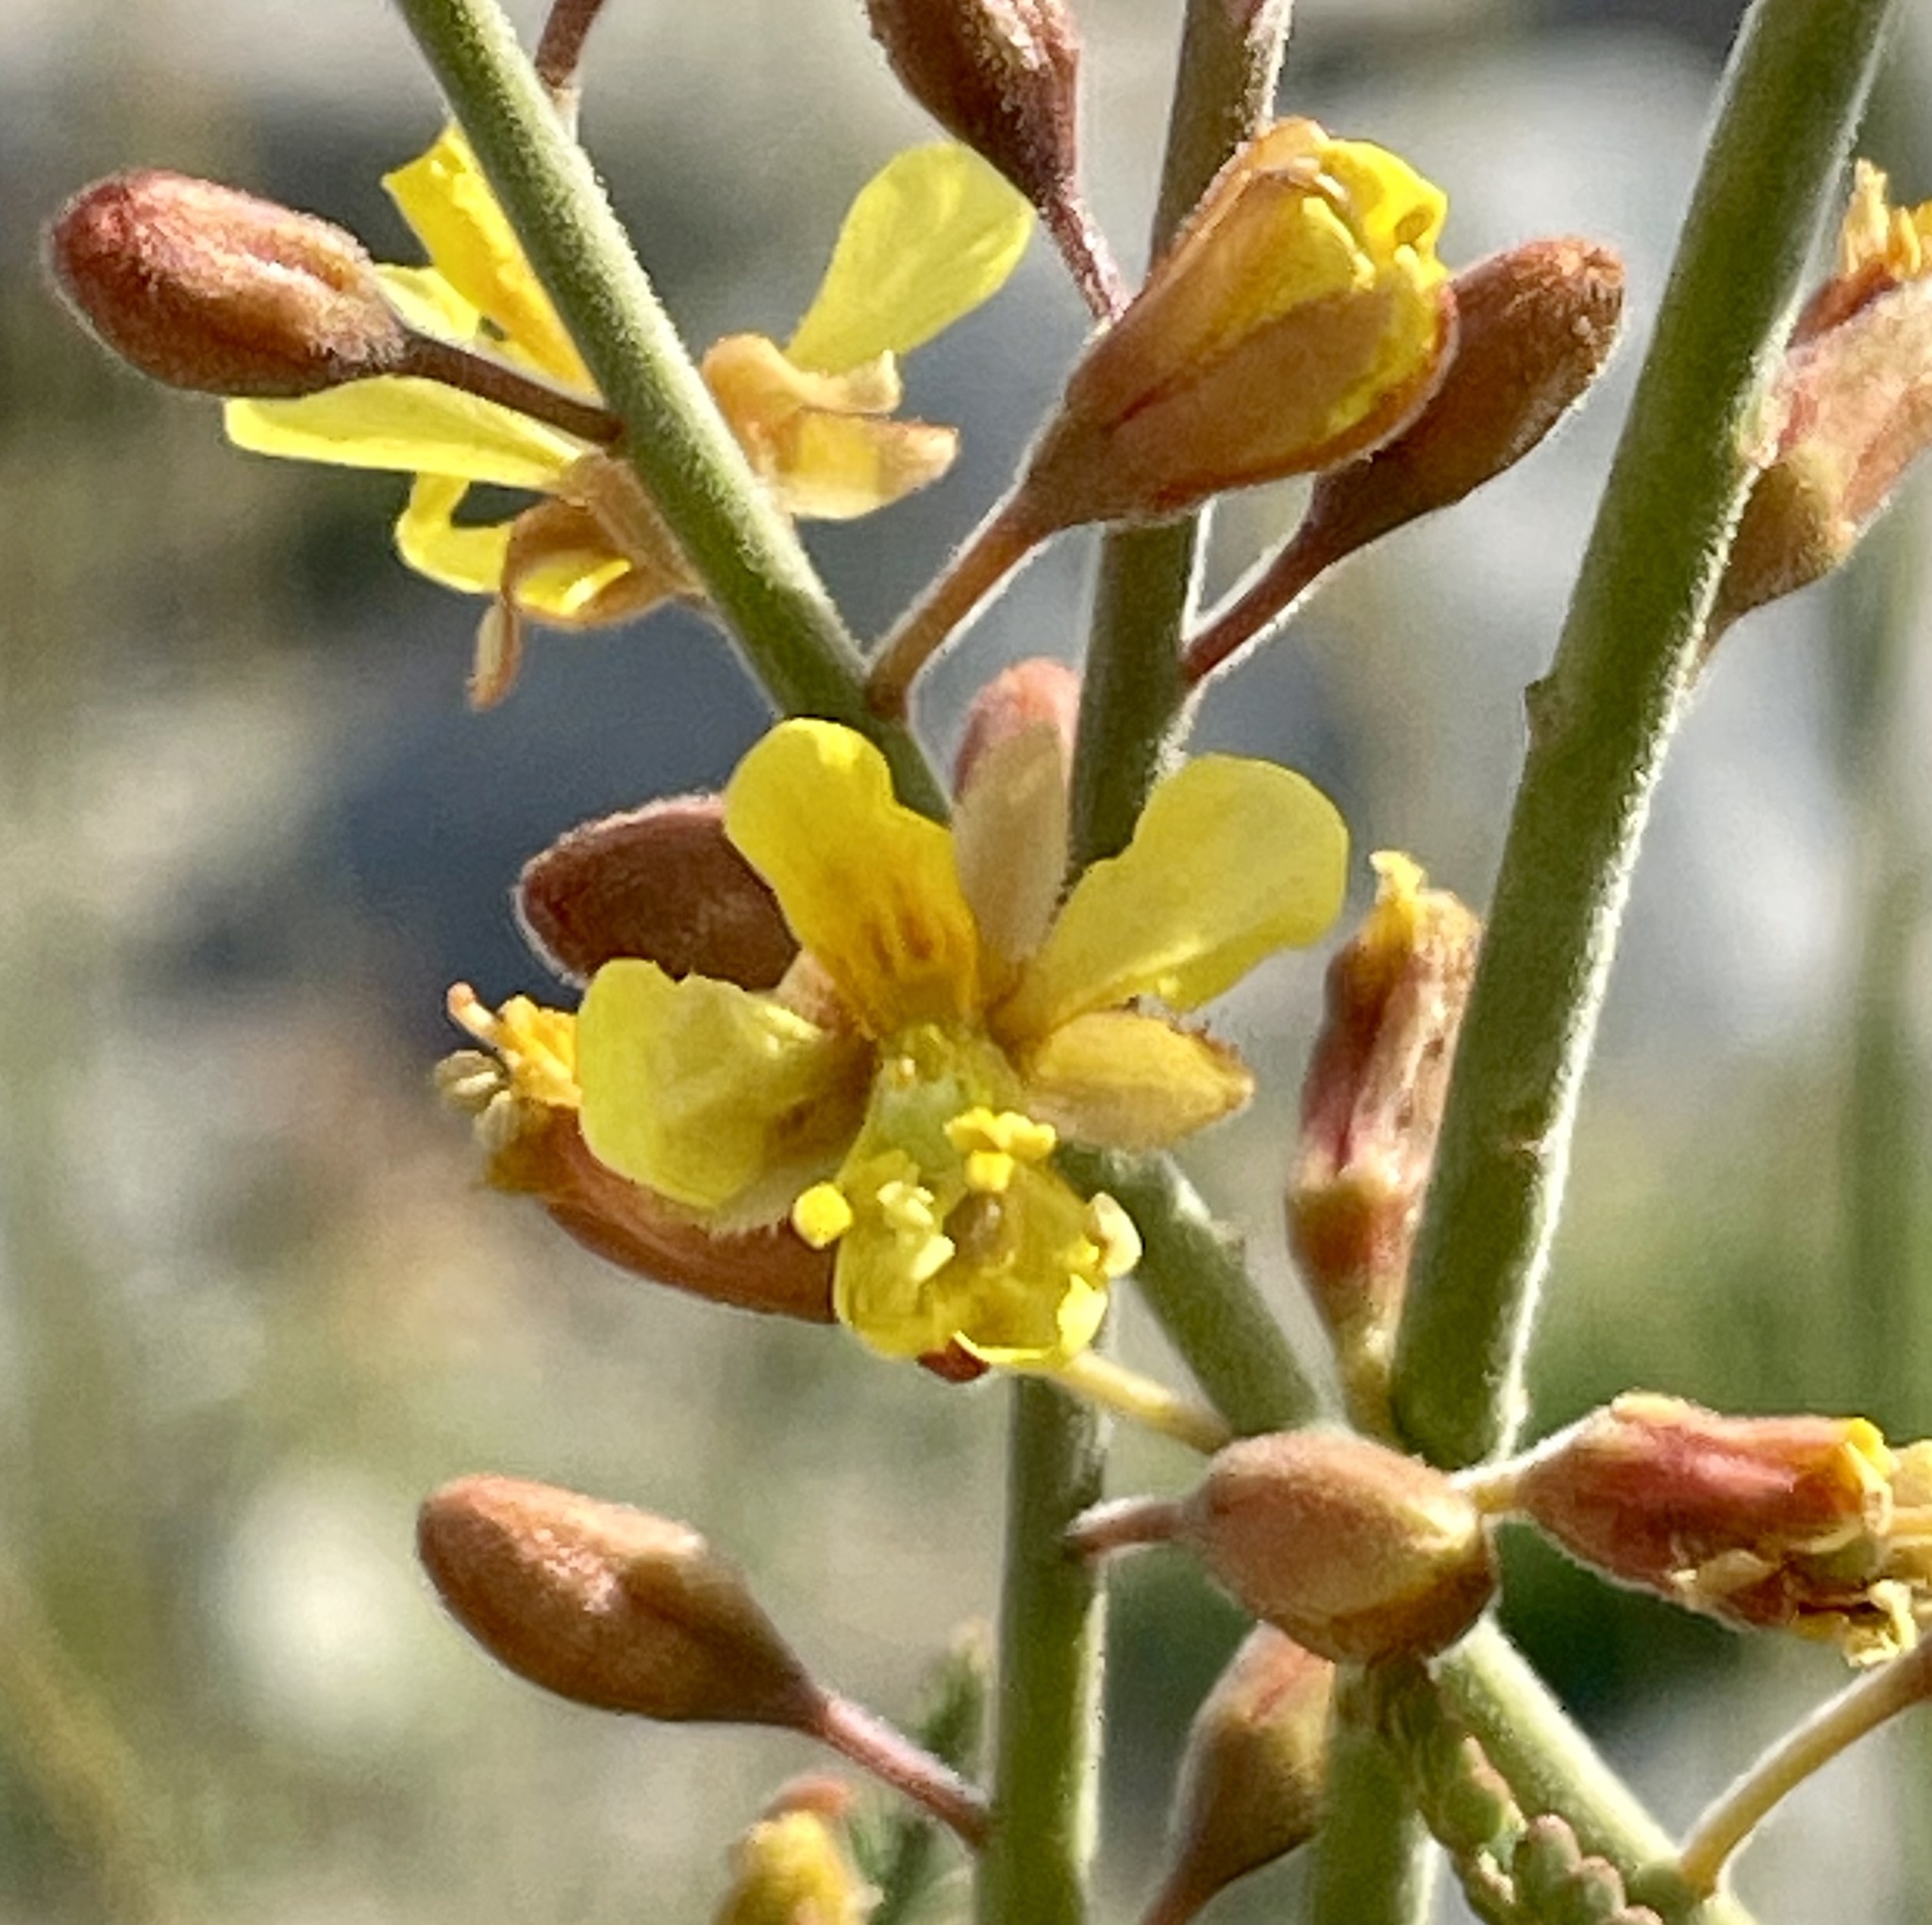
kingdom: Plantae
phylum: Tracheophyta
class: Magnoliopsida
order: Fabales
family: Fabaceae
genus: Hoffmannseggia
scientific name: Hoffmannseggia microphylla
